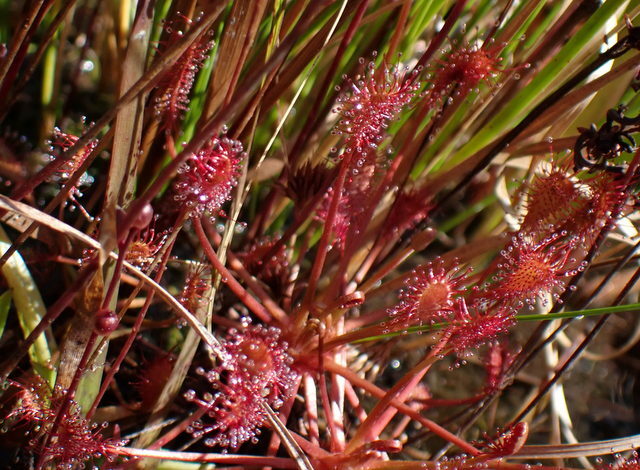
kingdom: Plantae
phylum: Tracheophyta
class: Magnoliopsida
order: Caryophyllales
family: Droseraceae
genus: Drosera
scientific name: Drosera intermedia
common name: Oblong-leaved sundew
